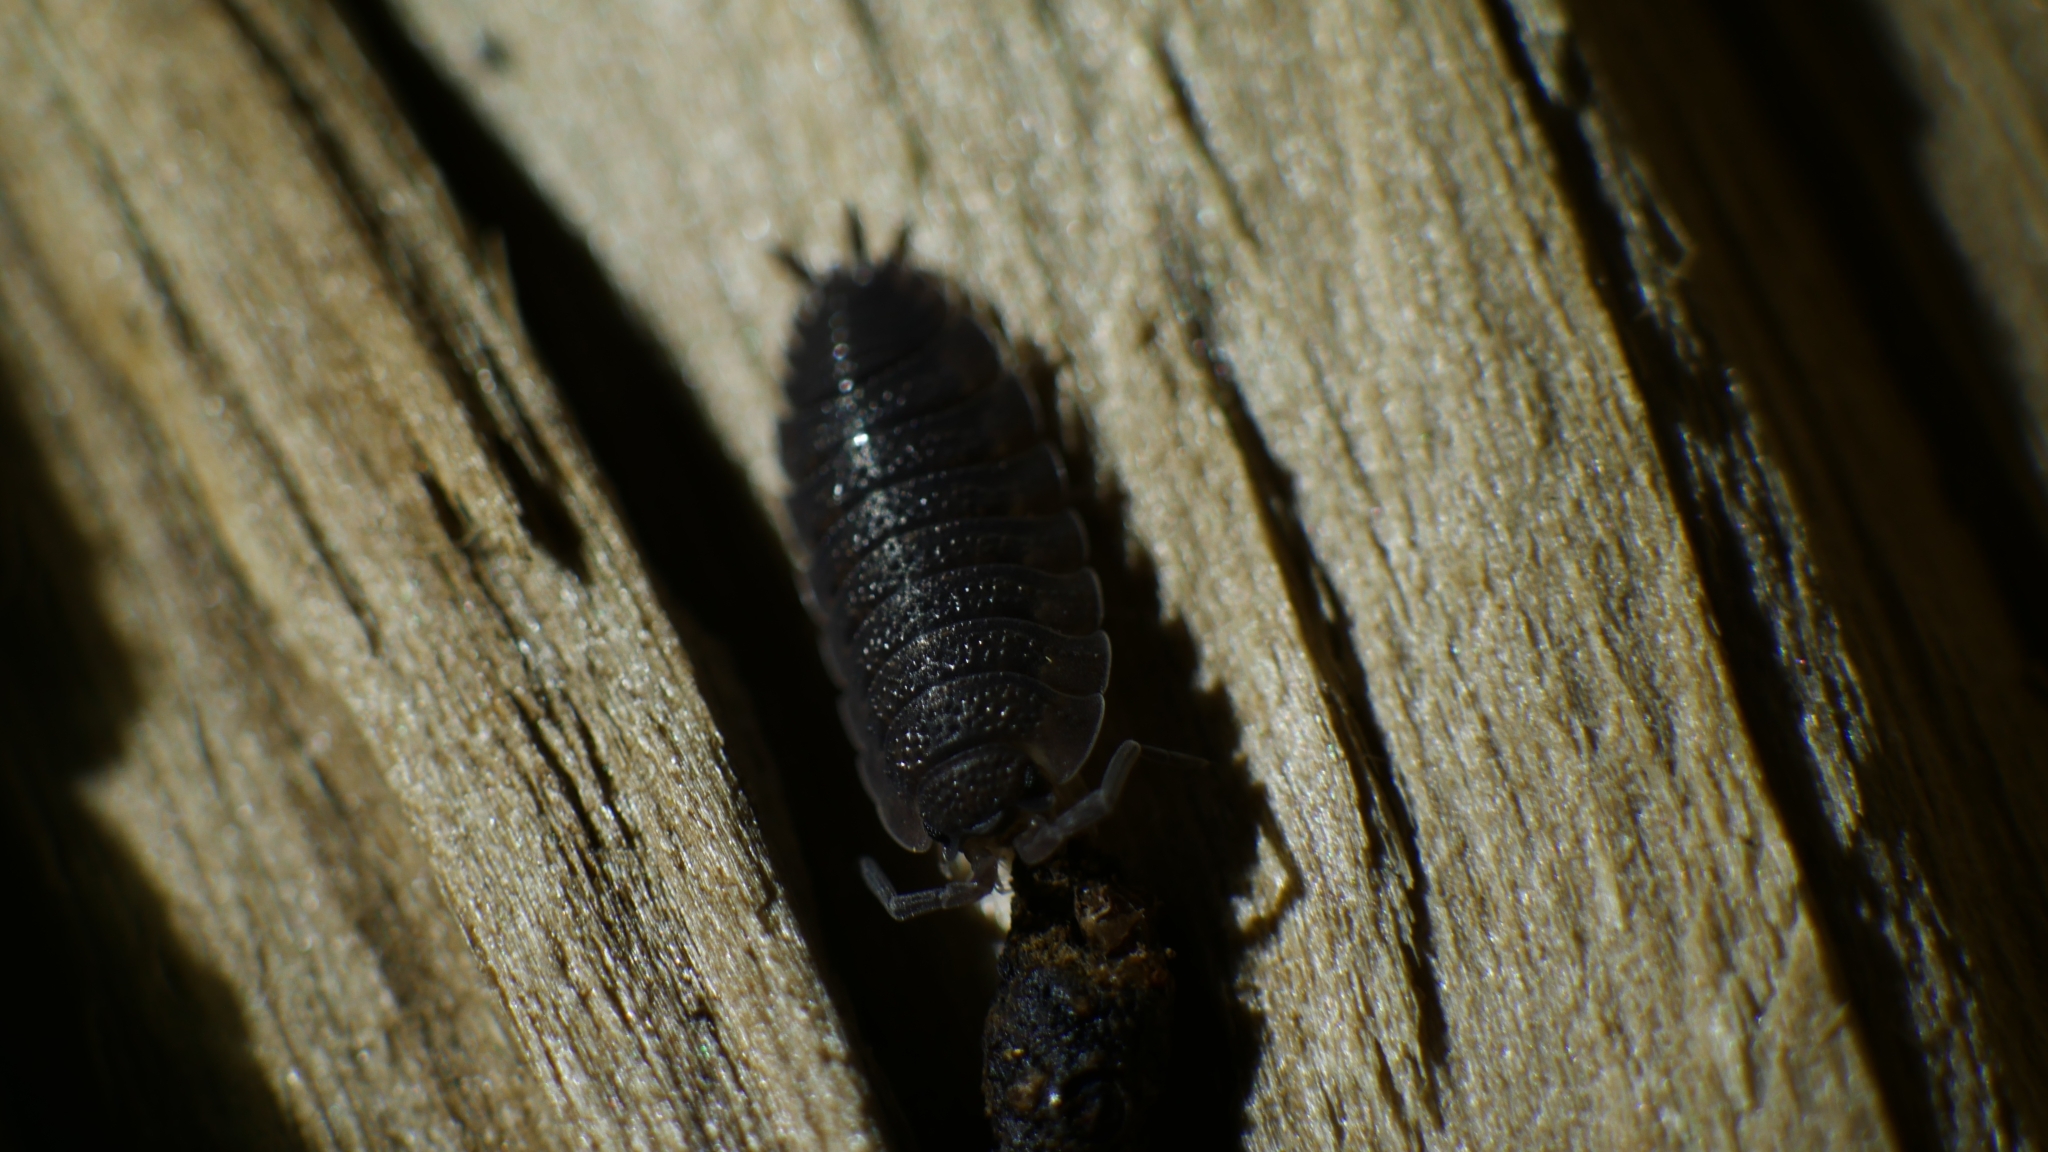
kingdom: Animalia
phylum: Arthropoda
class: Malacostraca
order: Isopoda
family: Porcellionidae
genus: Porcellio
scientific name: Porcellio scaber
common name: Common rough woodlouse
